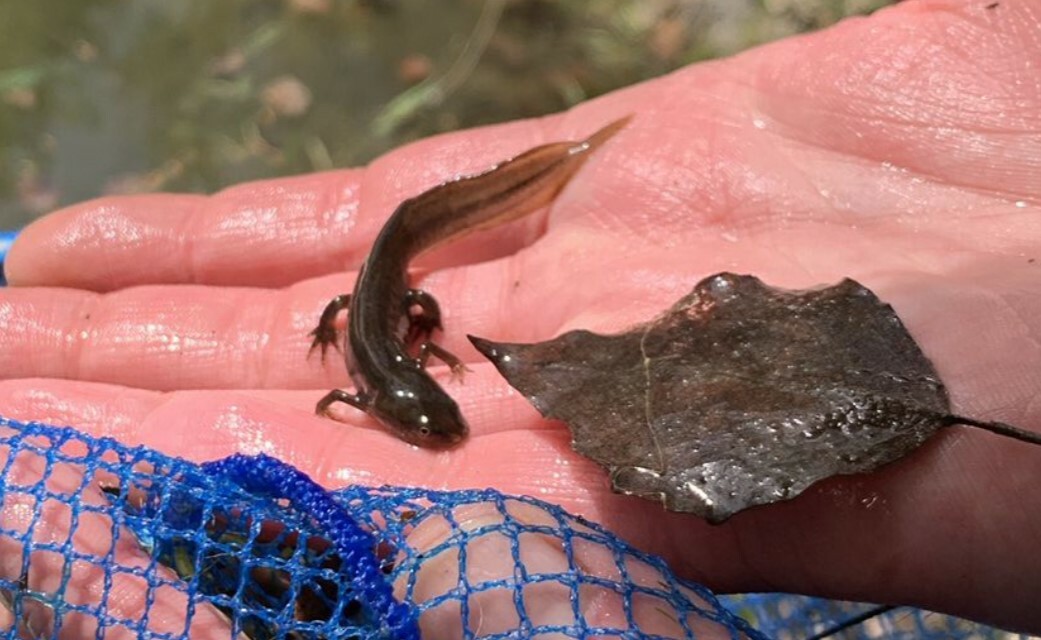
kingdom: Animalia
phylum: Chordata
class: Amphibia
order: Caudata
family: Salamandridae
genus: Lissotriton
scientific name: Lissotriton vulgaris
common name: Smooth newt
